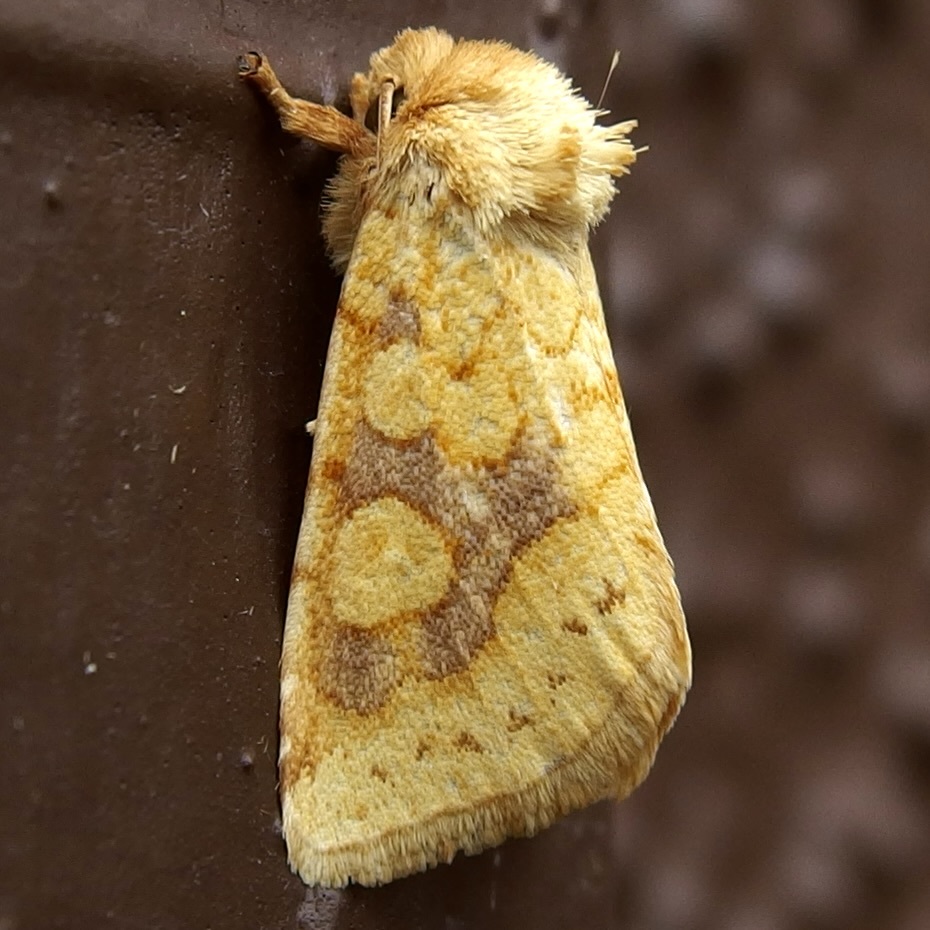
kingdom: Animalia
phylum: Arthropoda
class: Insecta
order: Lepidoptera
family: Noctuidae
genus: Nocloa
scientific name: Nocloa cordova
